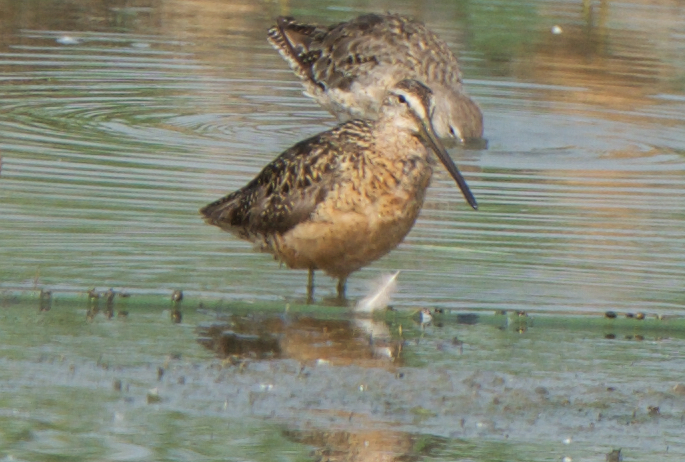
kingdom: Animalia
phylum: Chordata
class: Aves
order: Charadriiformes
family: Scolopacidae
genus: Limnodromus
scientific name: Limnodromus scolopaceus
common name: Long-billed dowitcher
